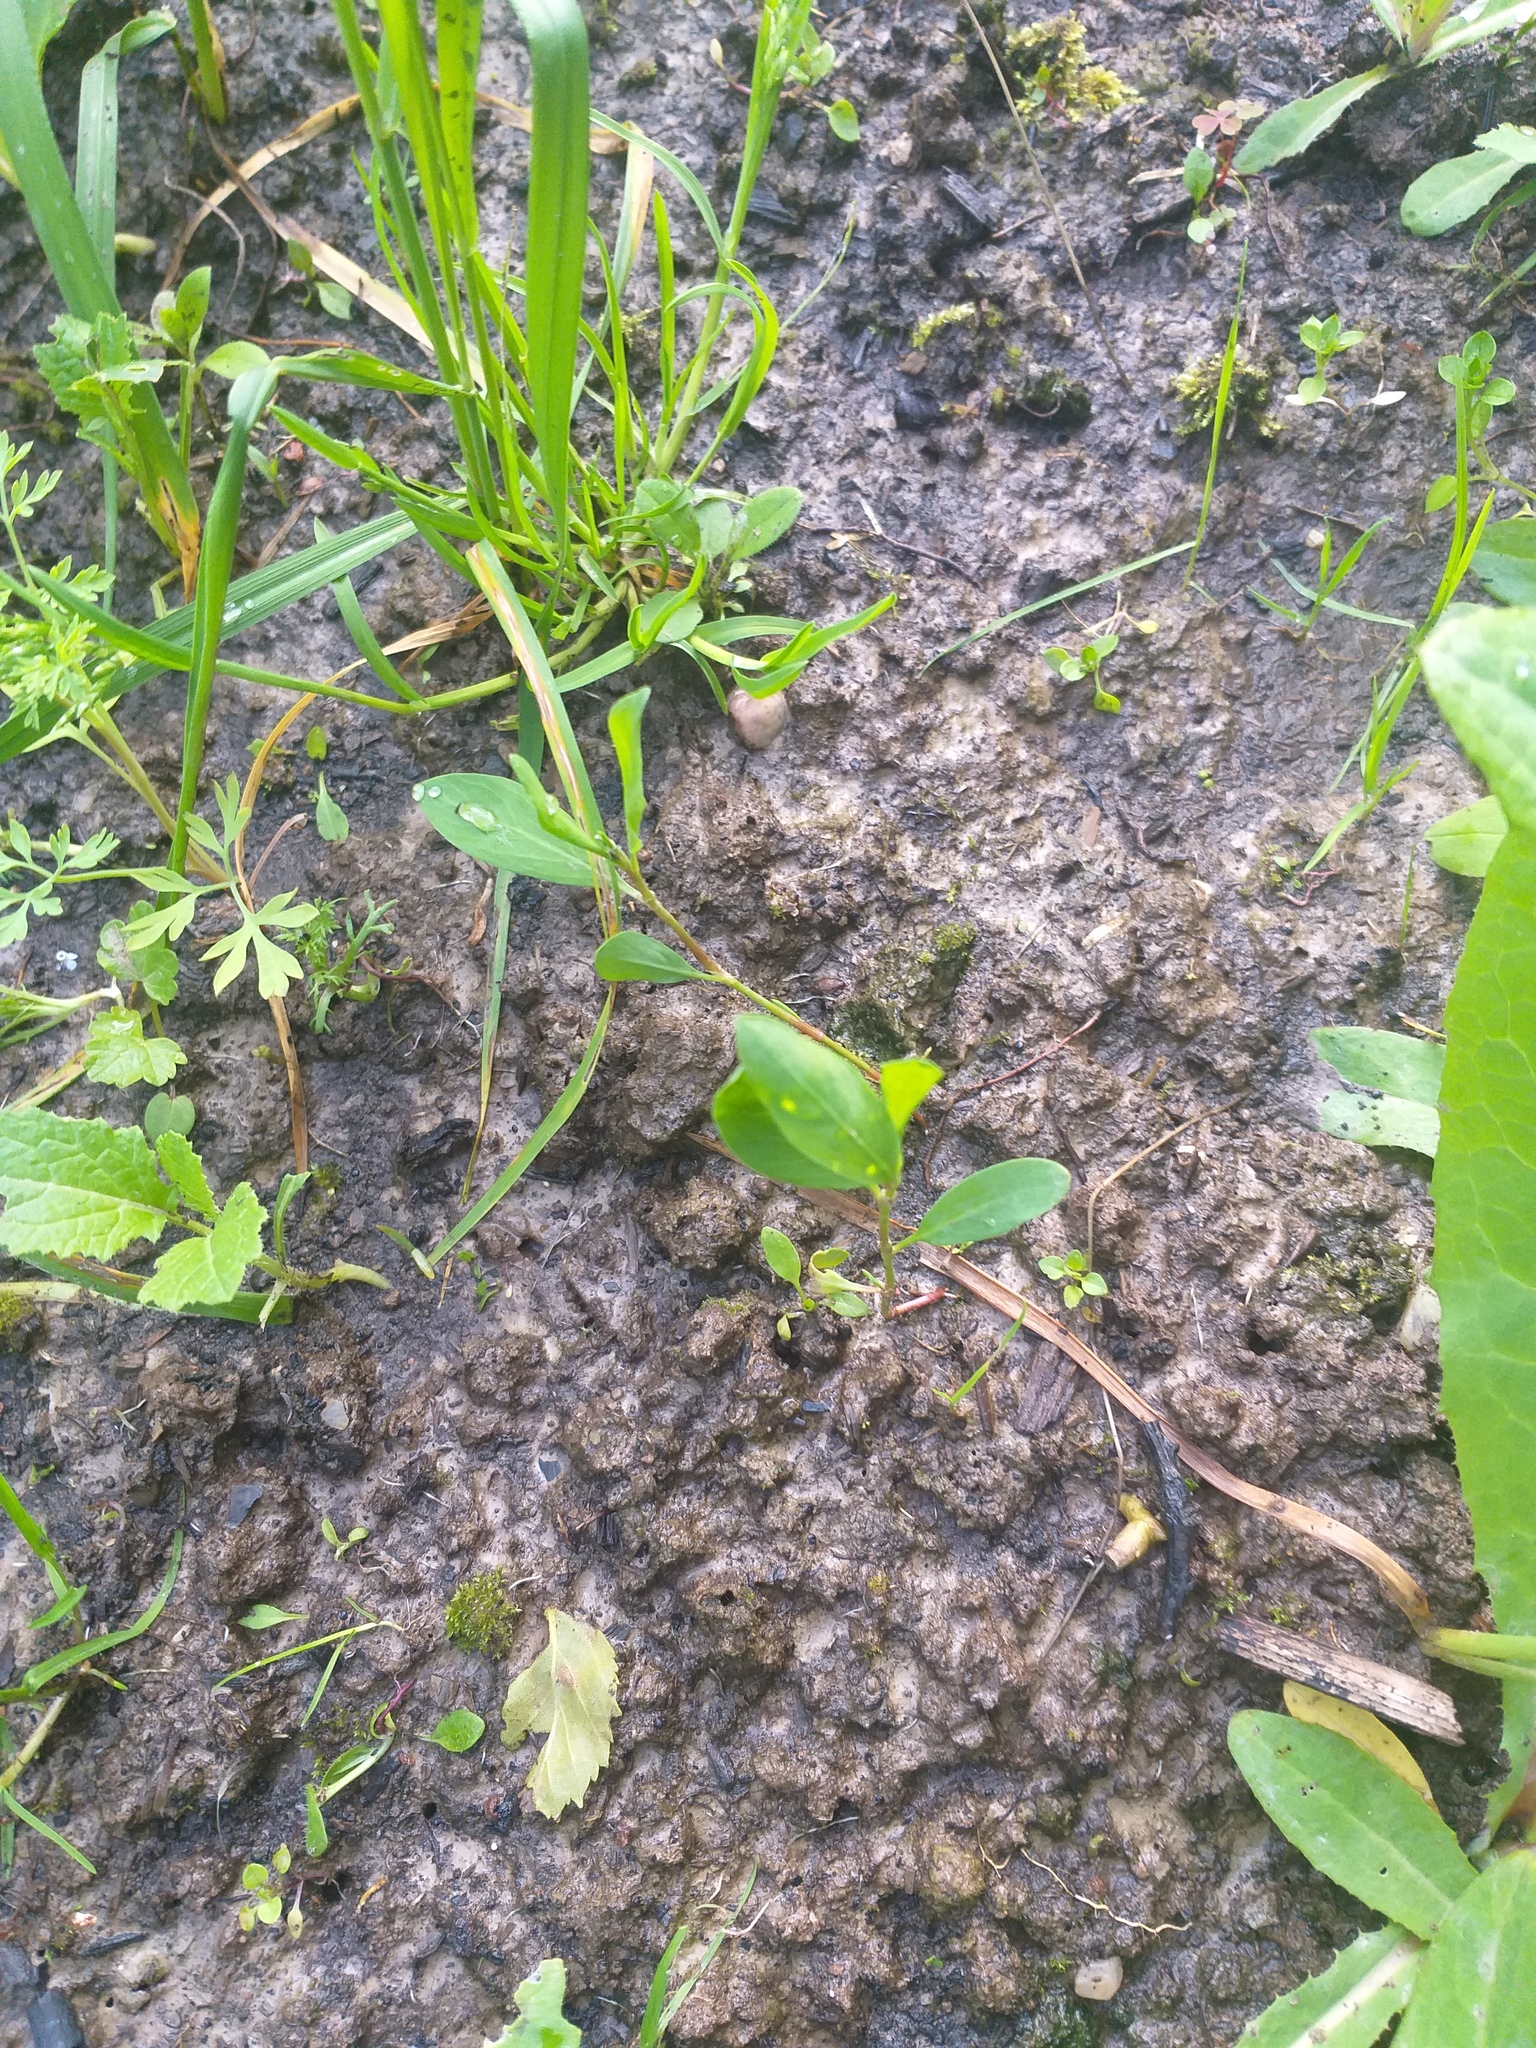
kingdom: Plantae
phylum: Tracheophyta
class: Magnoliopsida
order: Caryophyllales
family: Polygonaceae
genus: Polygonum
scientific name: Polygonum
